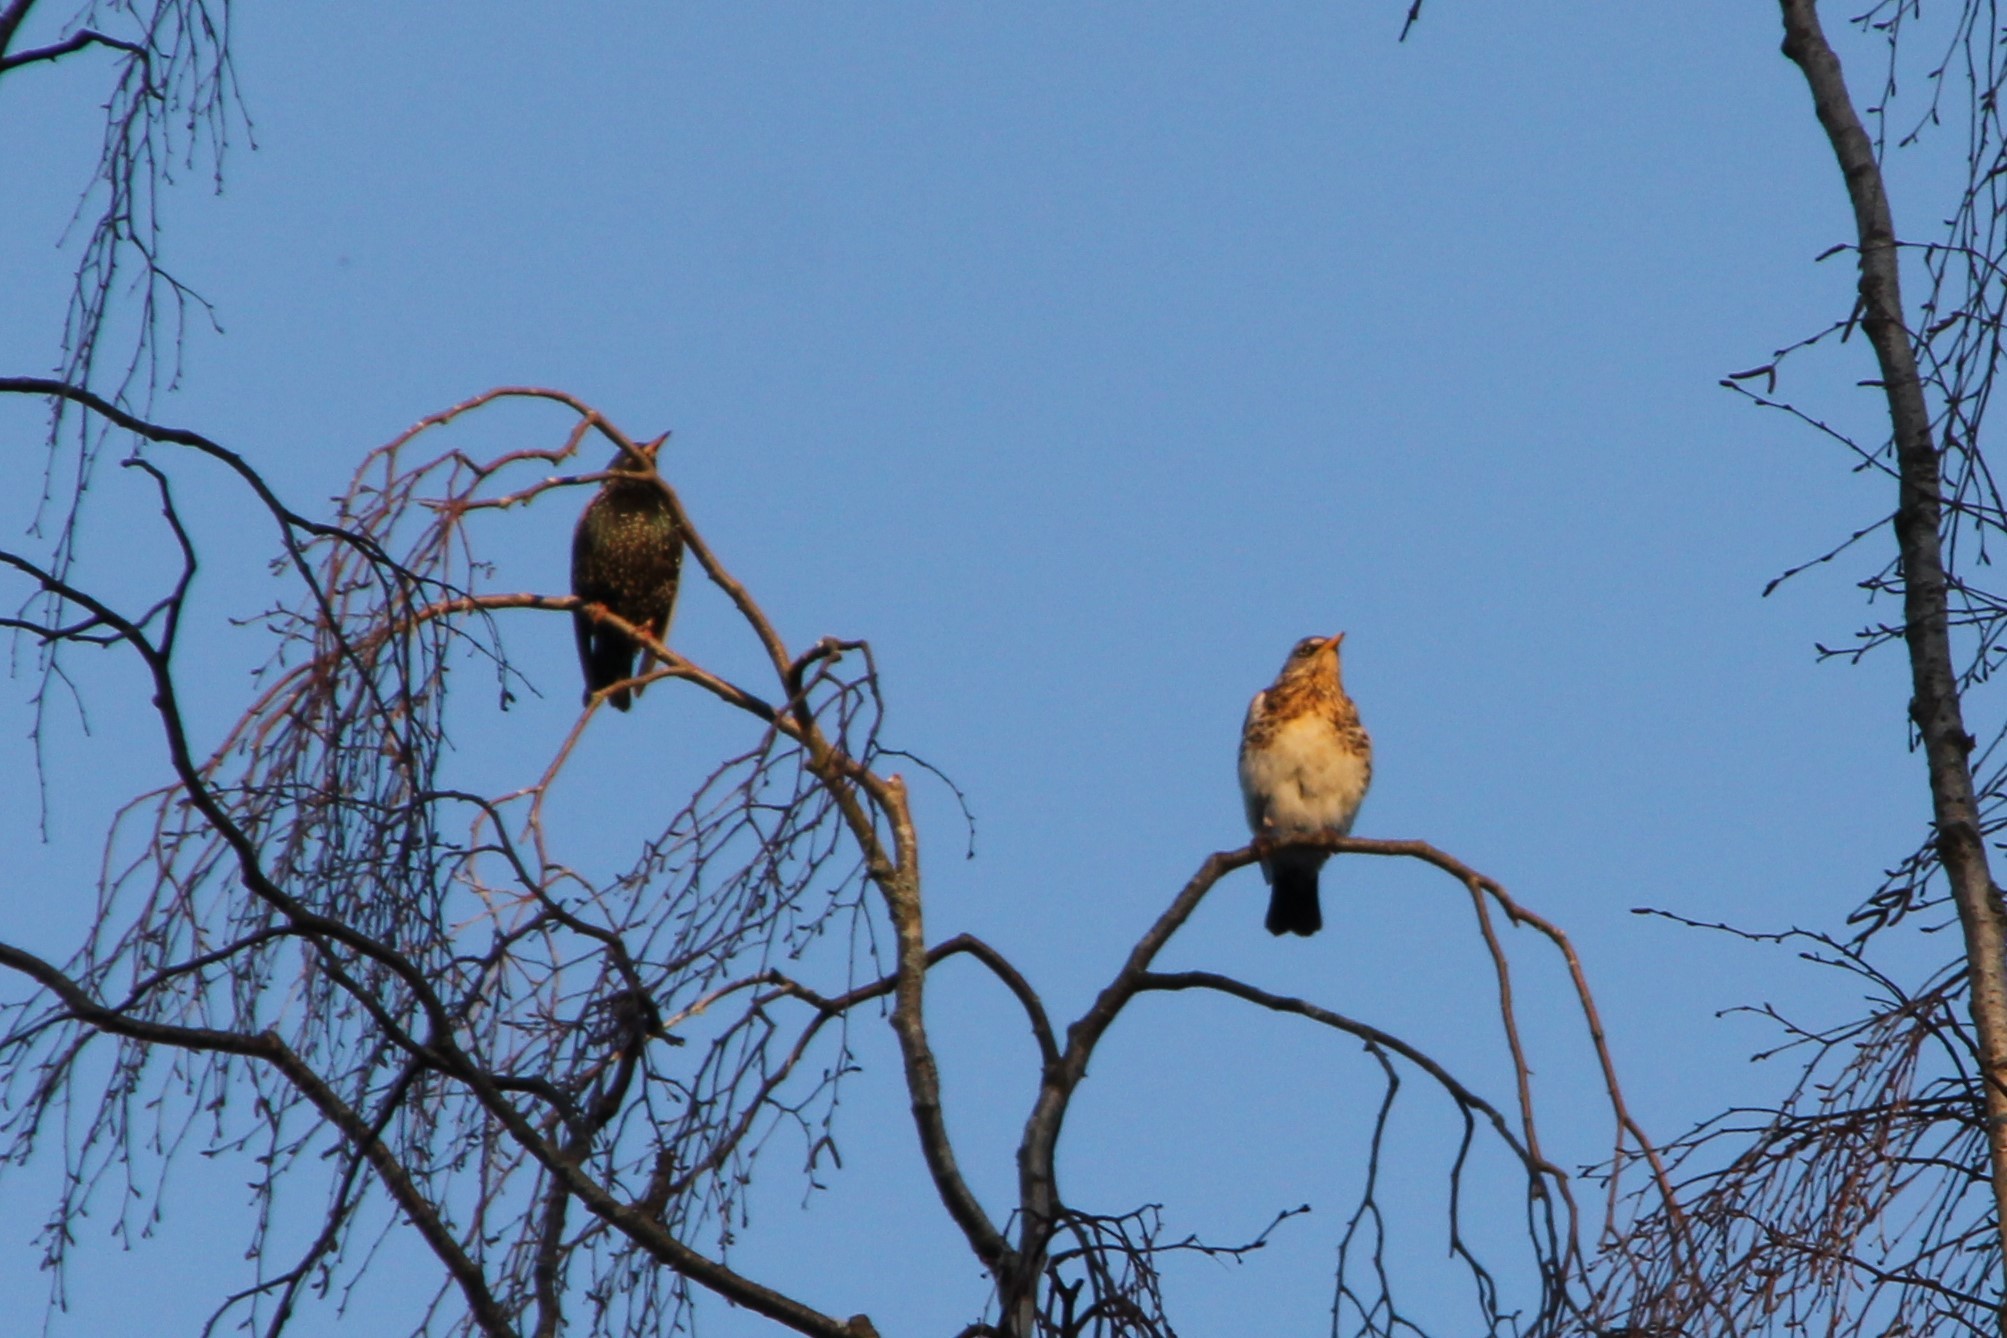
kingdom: Animalia
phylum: Chordata
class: Aves
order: Passeriformes
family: Sturnidae
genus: Sturnus
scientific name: Sturnus vulgaris
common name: Common starling
